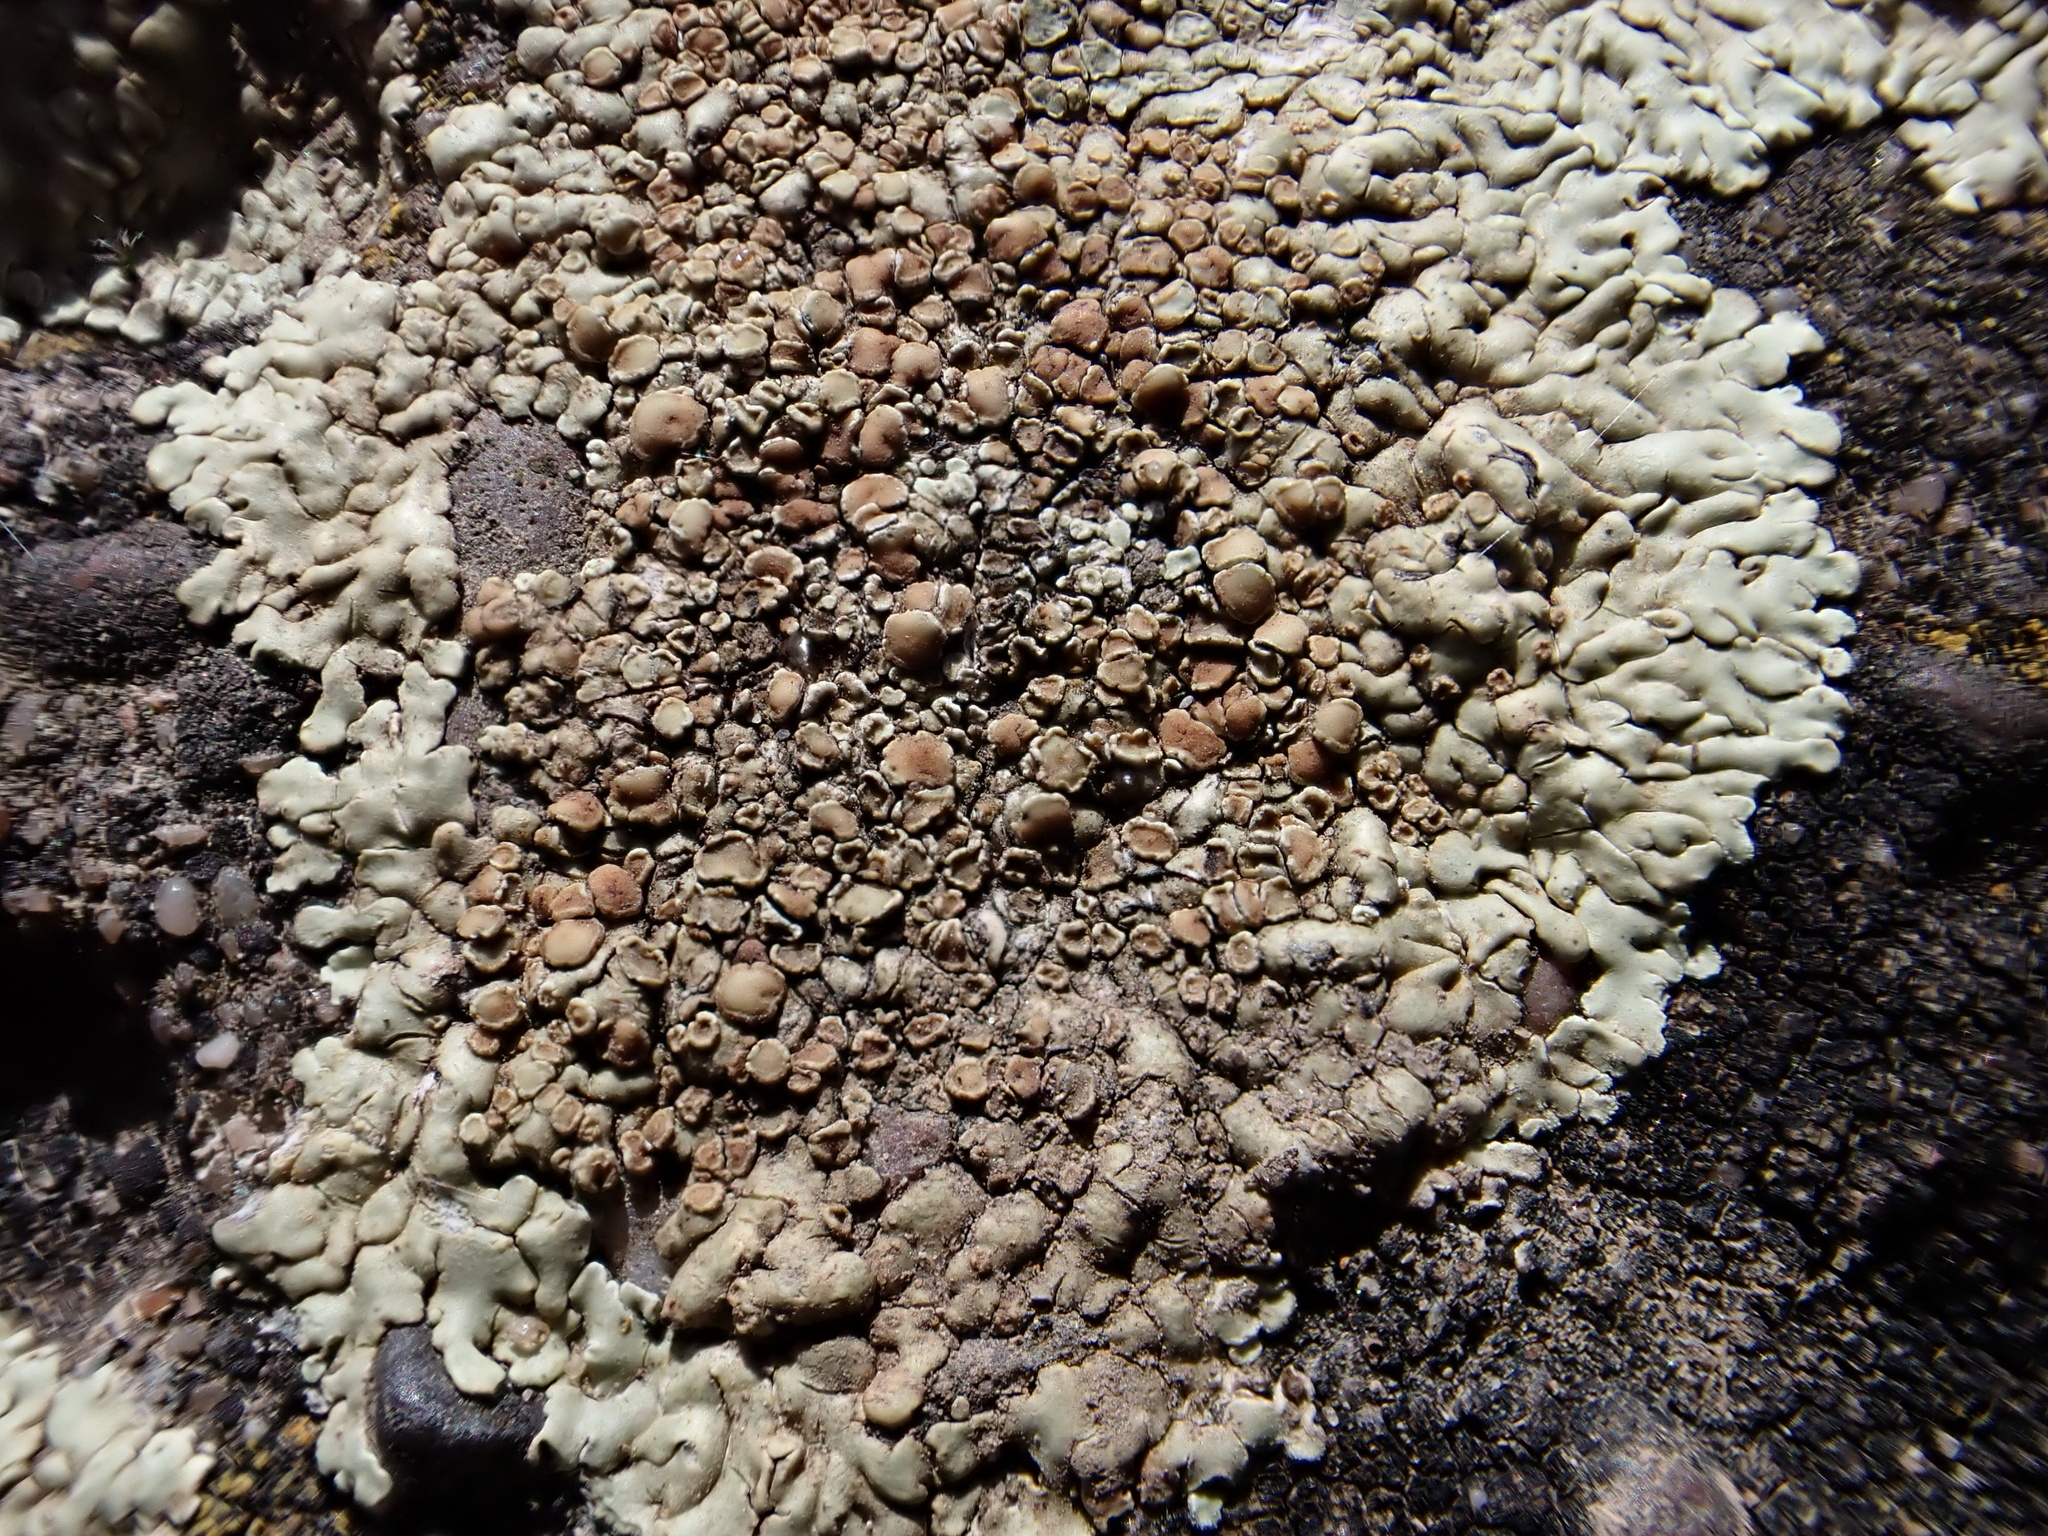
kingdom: Fungi
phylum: Ascomycota
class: Lecanoromycetes
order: Lecanorales
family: Lecanoraceae
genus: Protoparmeliopsis
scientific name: Protoparmeliopsis muralis
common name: Stonewall rim lichen
